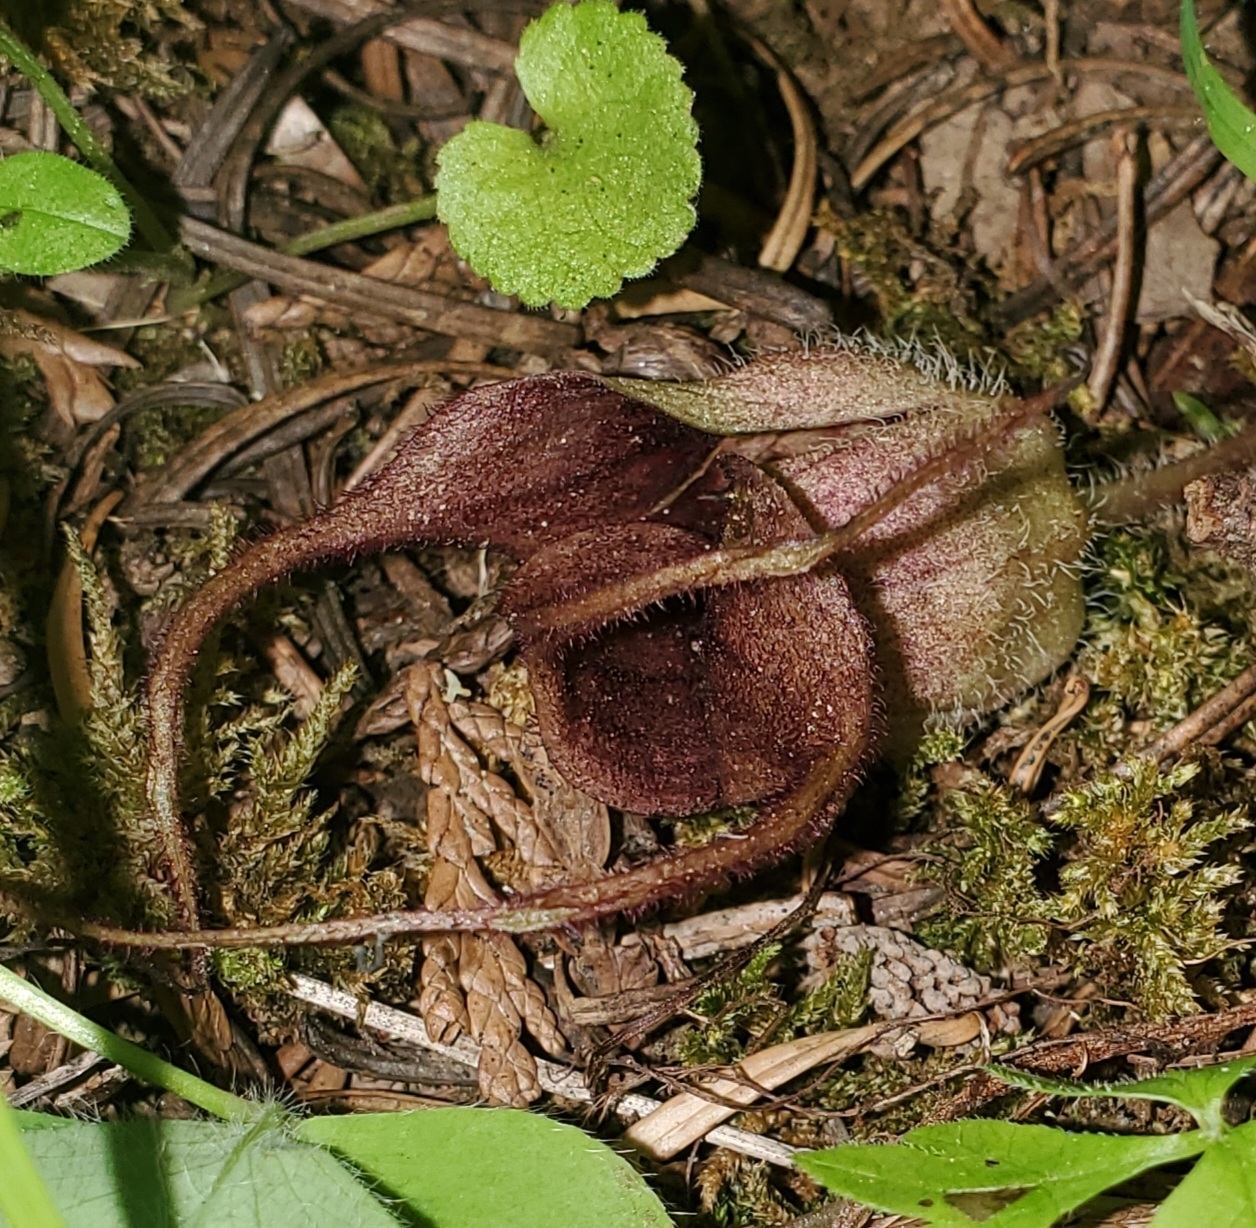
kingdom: Plantae
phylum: Tracheophyta
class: Magnoliopsida
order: Piperales
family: Aristolochiaceae
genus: Asarum
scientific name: Asarum caudatum
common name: Wild ginger
